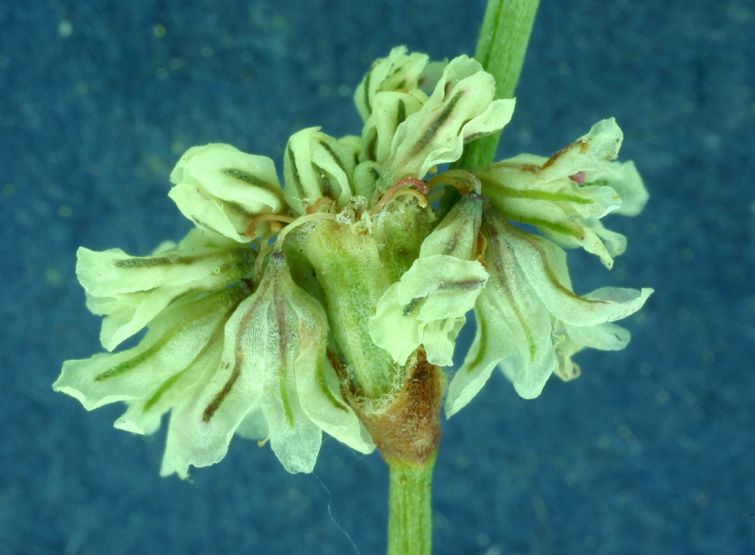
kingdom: Plantae
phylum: Tracheophyta
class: Magnoliopsida
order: Caryophyllales
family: Polygonaceae
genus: Eriogonum
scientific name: Eriogonum baileyi
